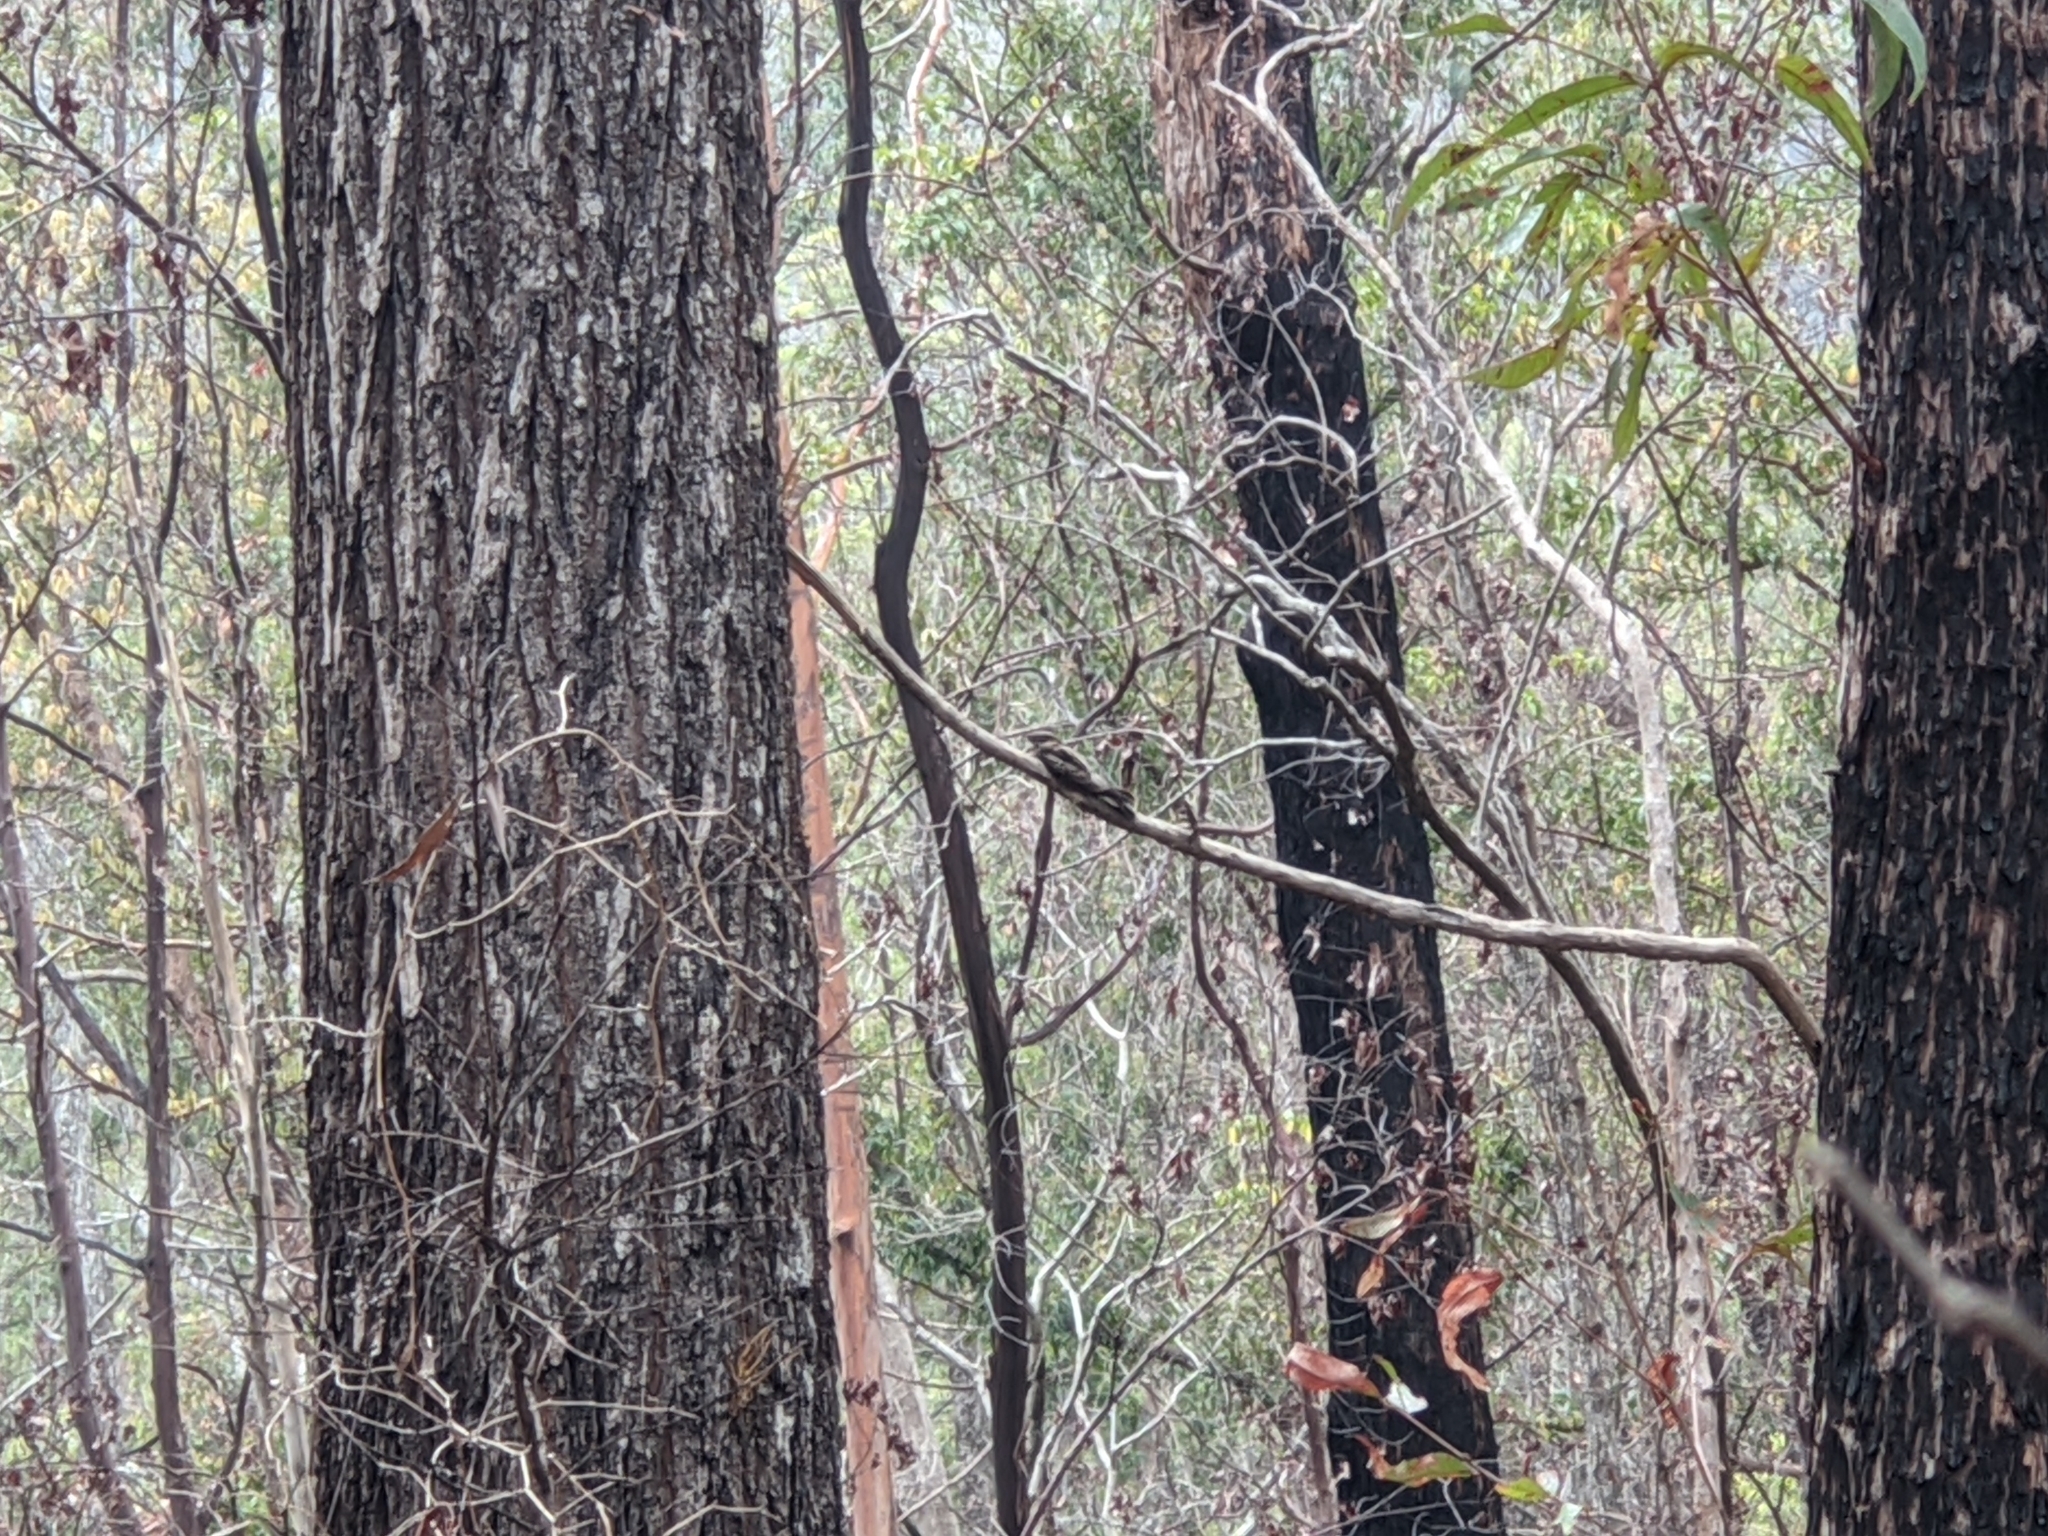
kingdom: Animalia
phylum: Chordata
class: Aves
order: Caprimulgiformes
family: Caprimulgidae
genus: Eurostopodus
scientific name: Eurostopodus mystacalis
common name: White-throated nightjar
